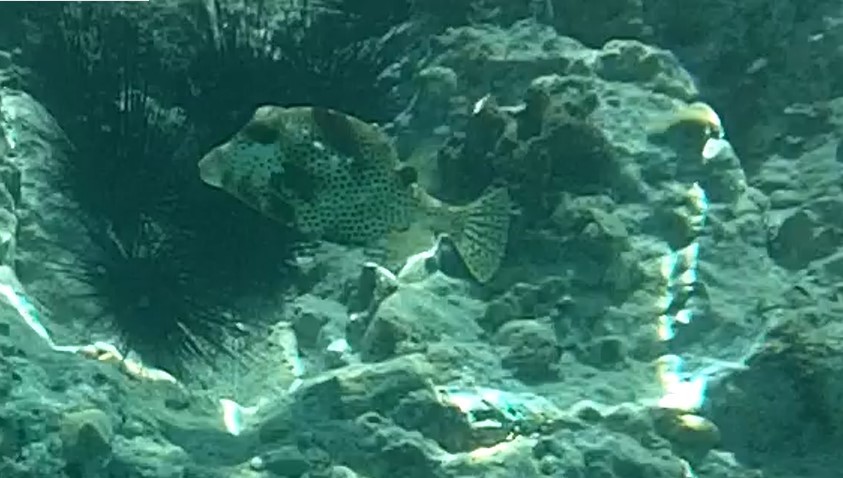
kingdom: Animalia
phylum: Chordata
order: Tetraodontiformes
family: Ostraciidae
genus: Lactophrys
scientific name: Lactophrys bicaudalis
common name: Spotted trunkfish
